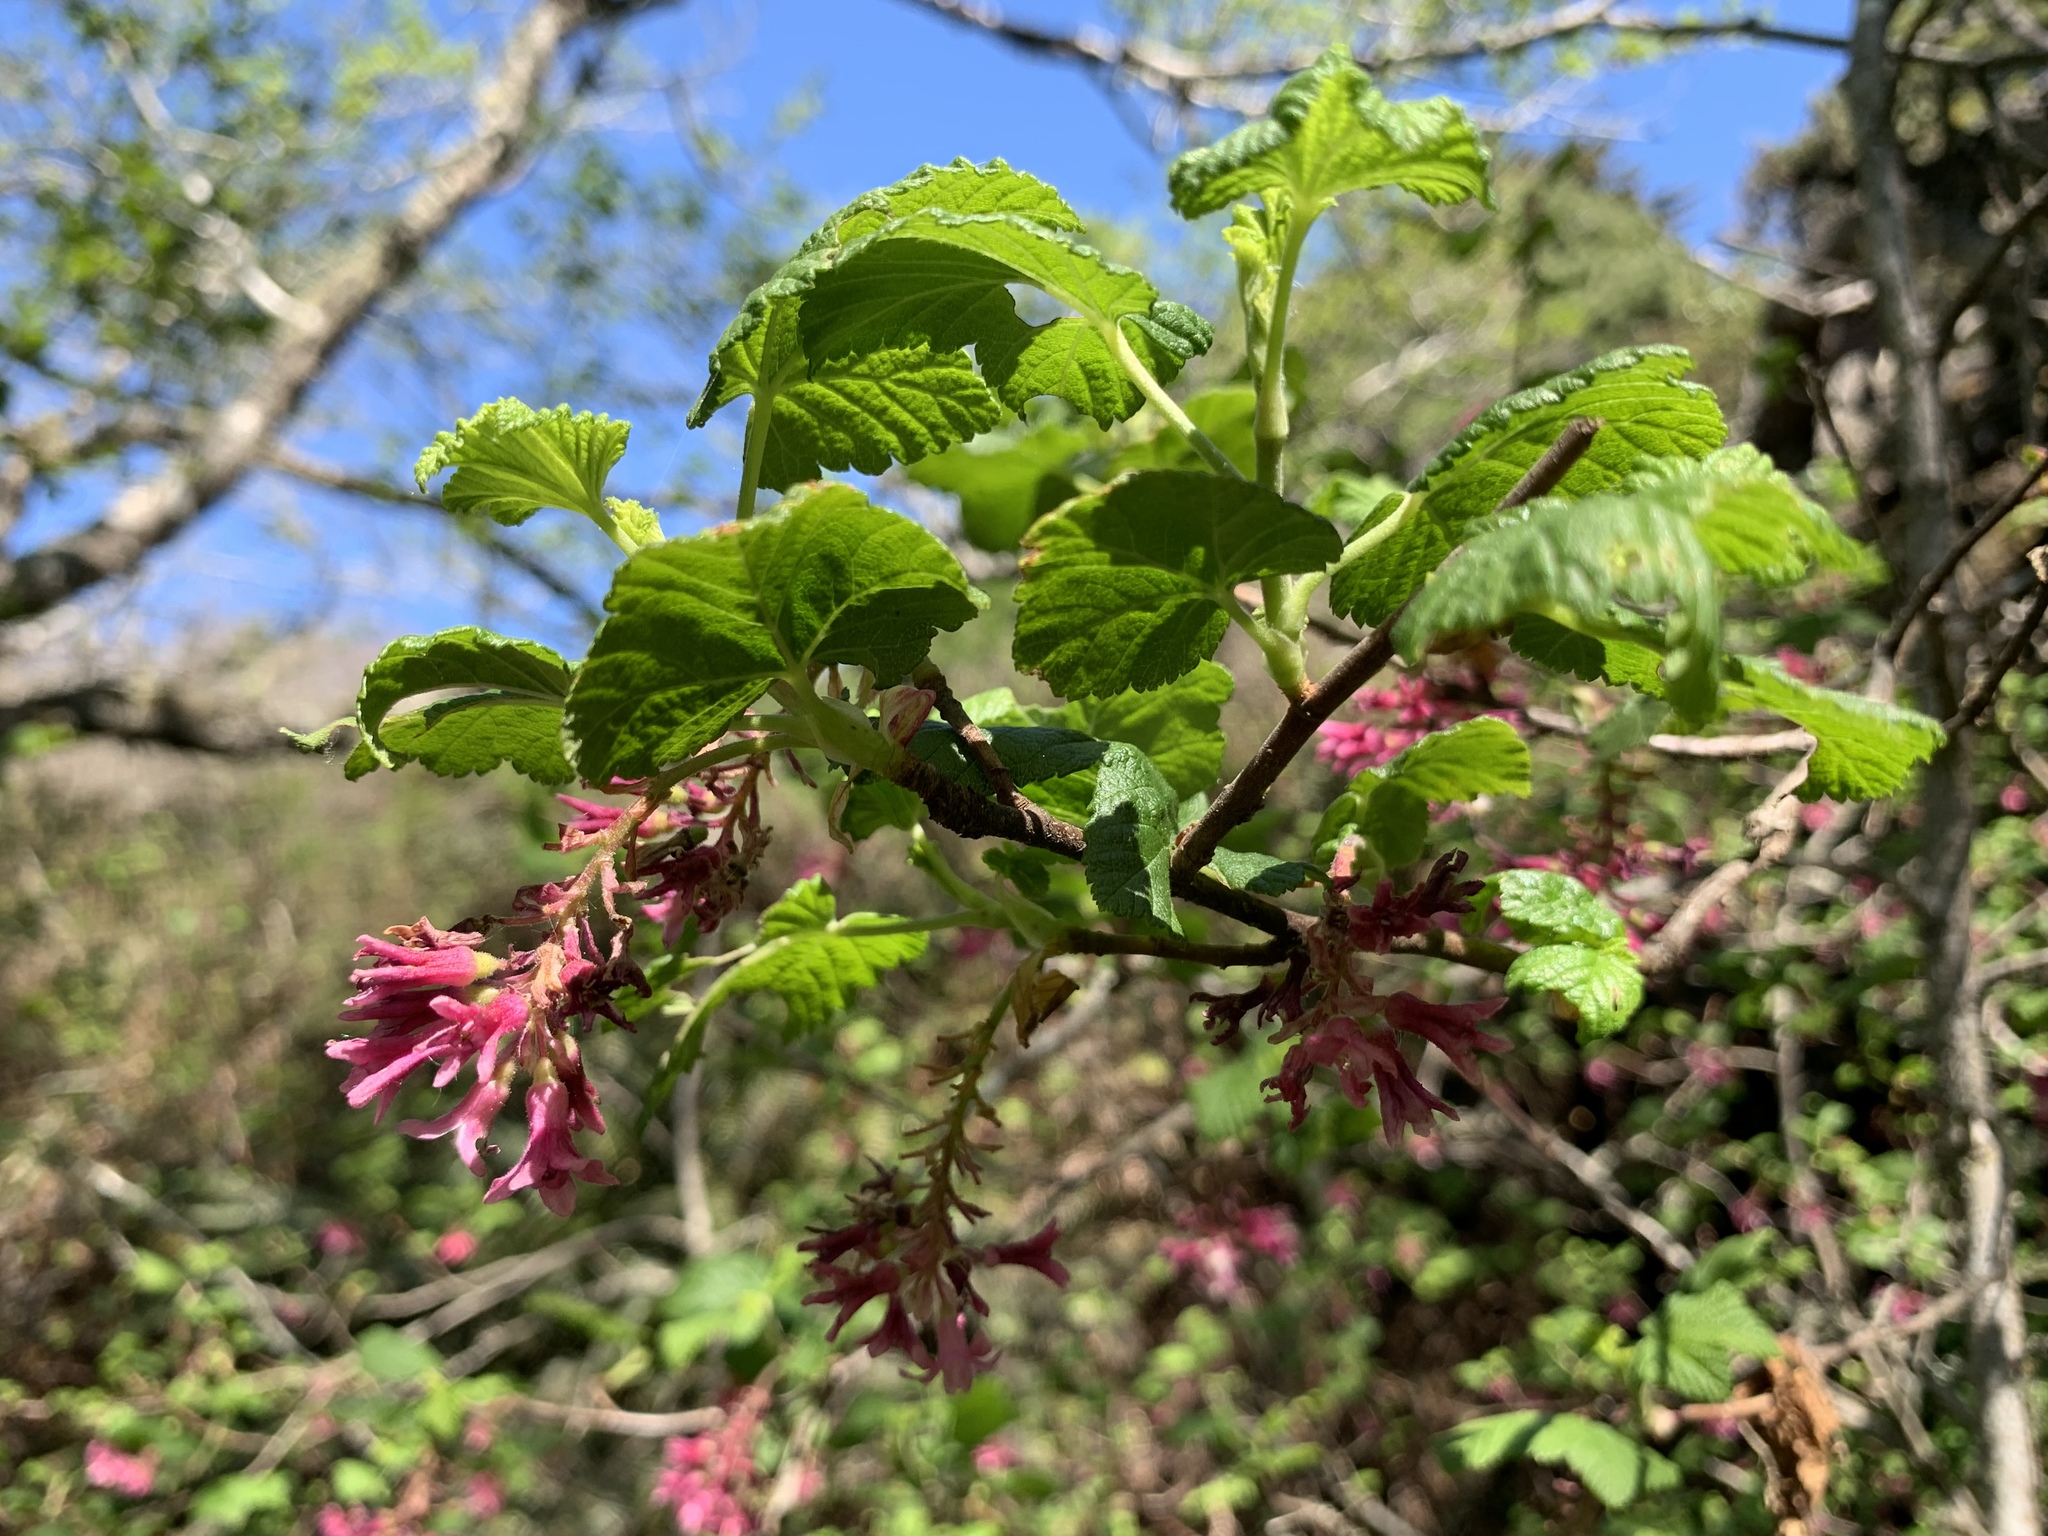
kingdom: Plantae
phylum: Tracheophyta
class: Magnoliopsida
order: Saxifragales
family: Grossulariaceae
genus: Ribes
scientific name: Ribes sanguineum
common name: Flowering currant
